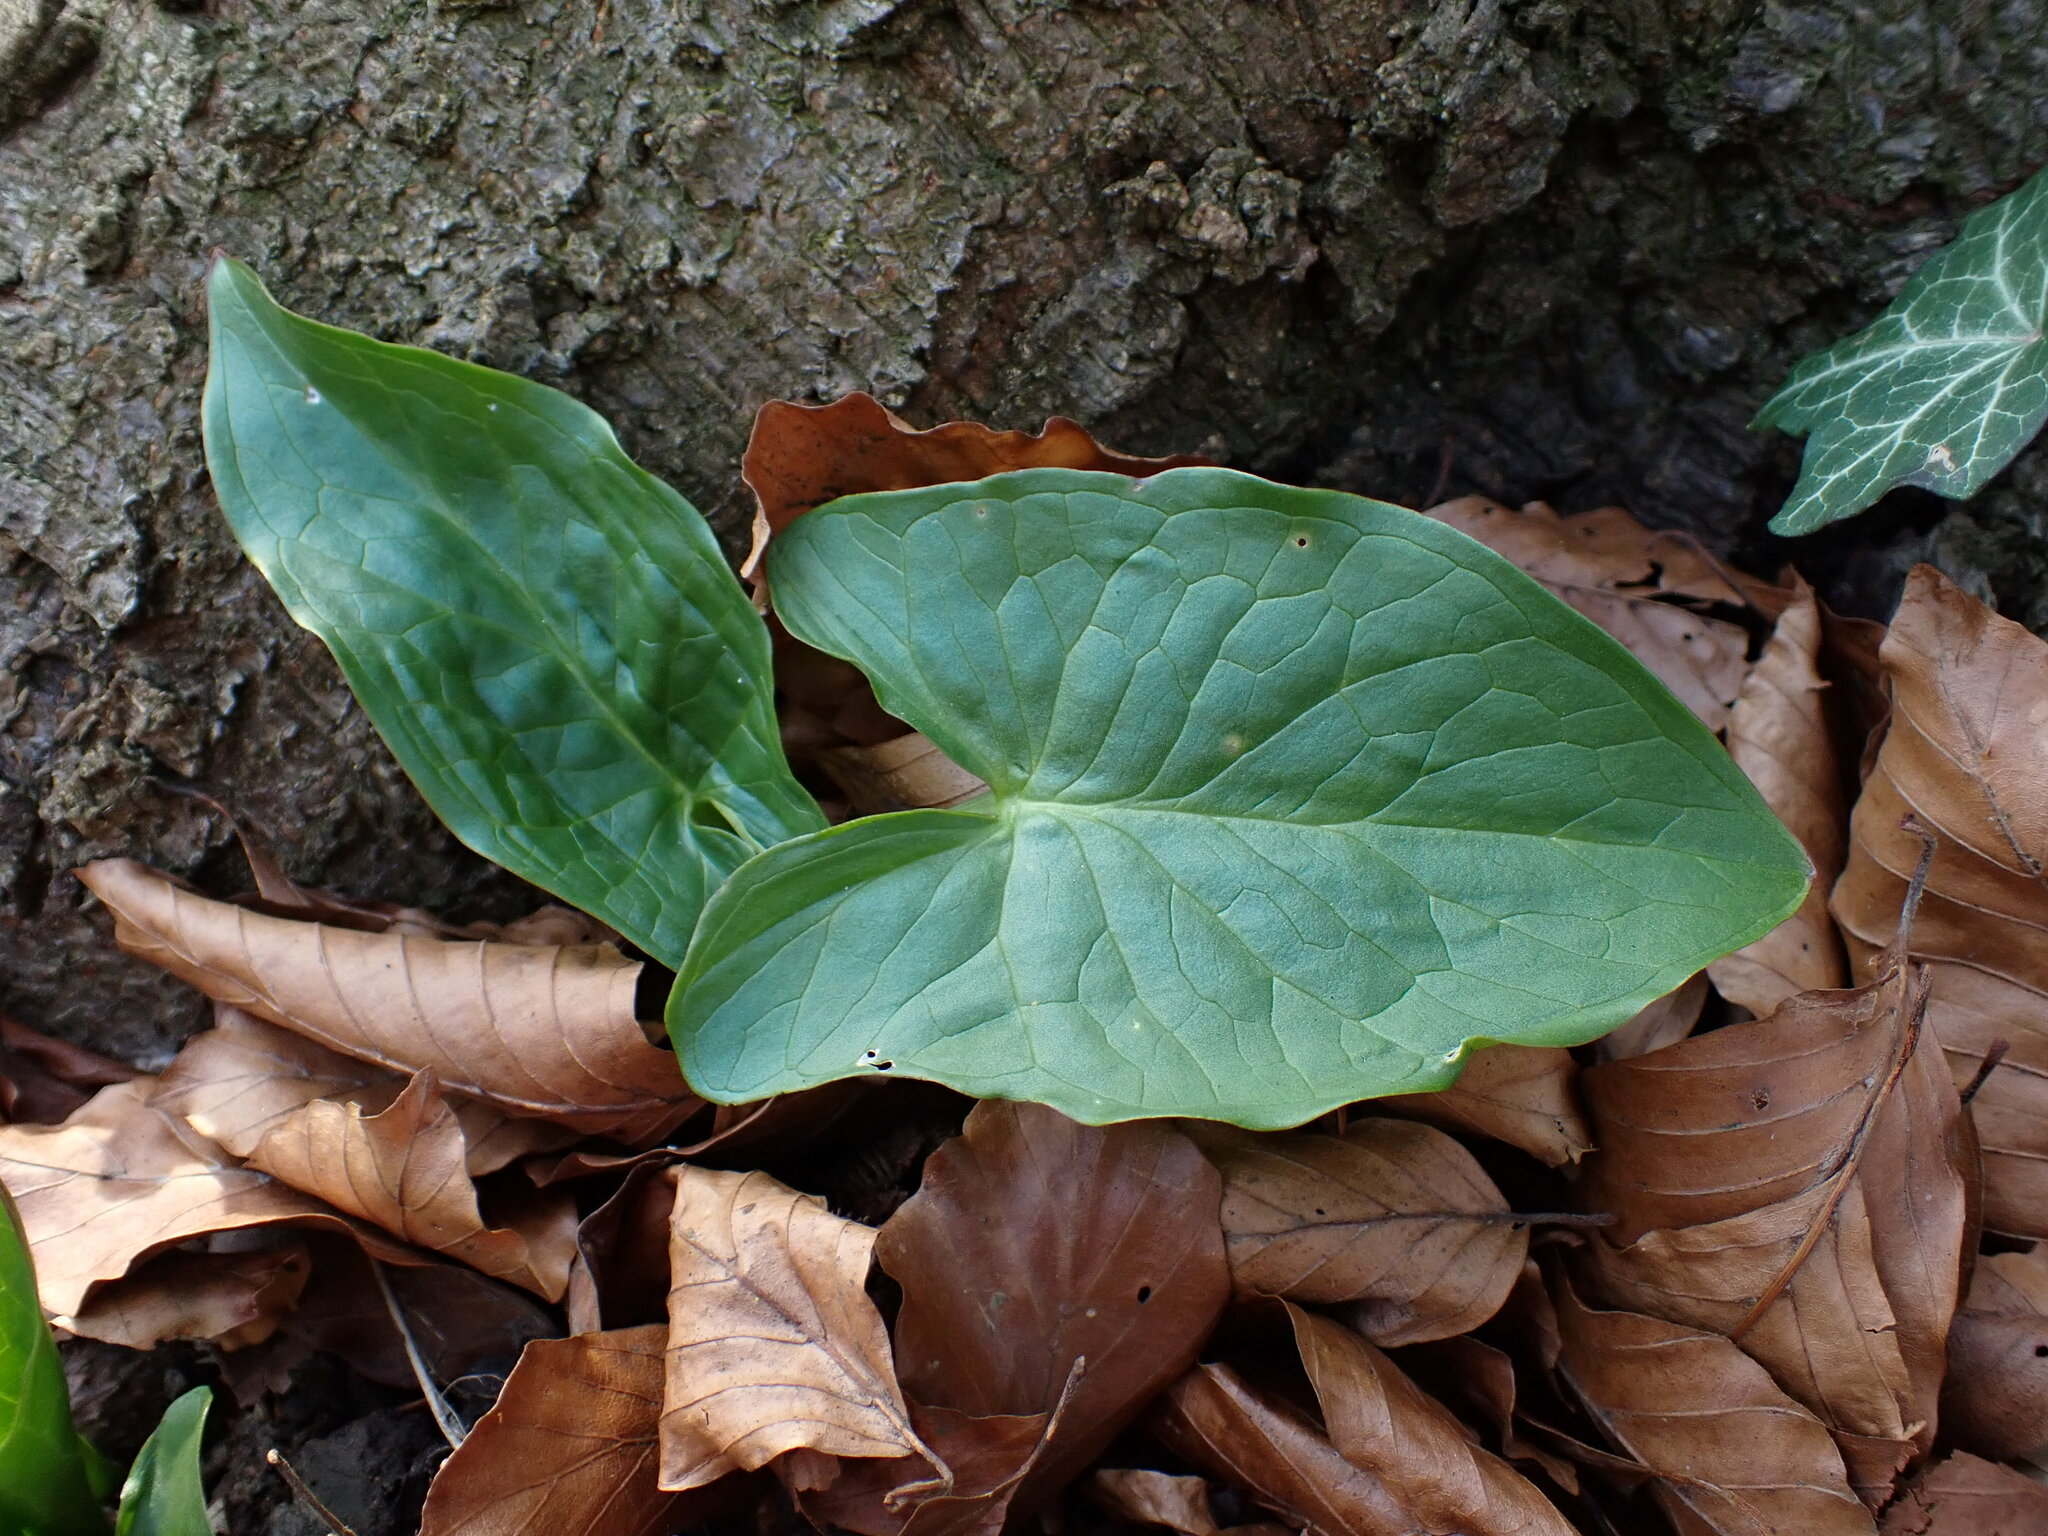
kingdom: Plantae
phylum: Tracheophyta
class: Liliopsida
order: Alismatales
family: Araceae
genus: Arum
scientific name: Arum maculatum
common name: Lords-and-ladies
